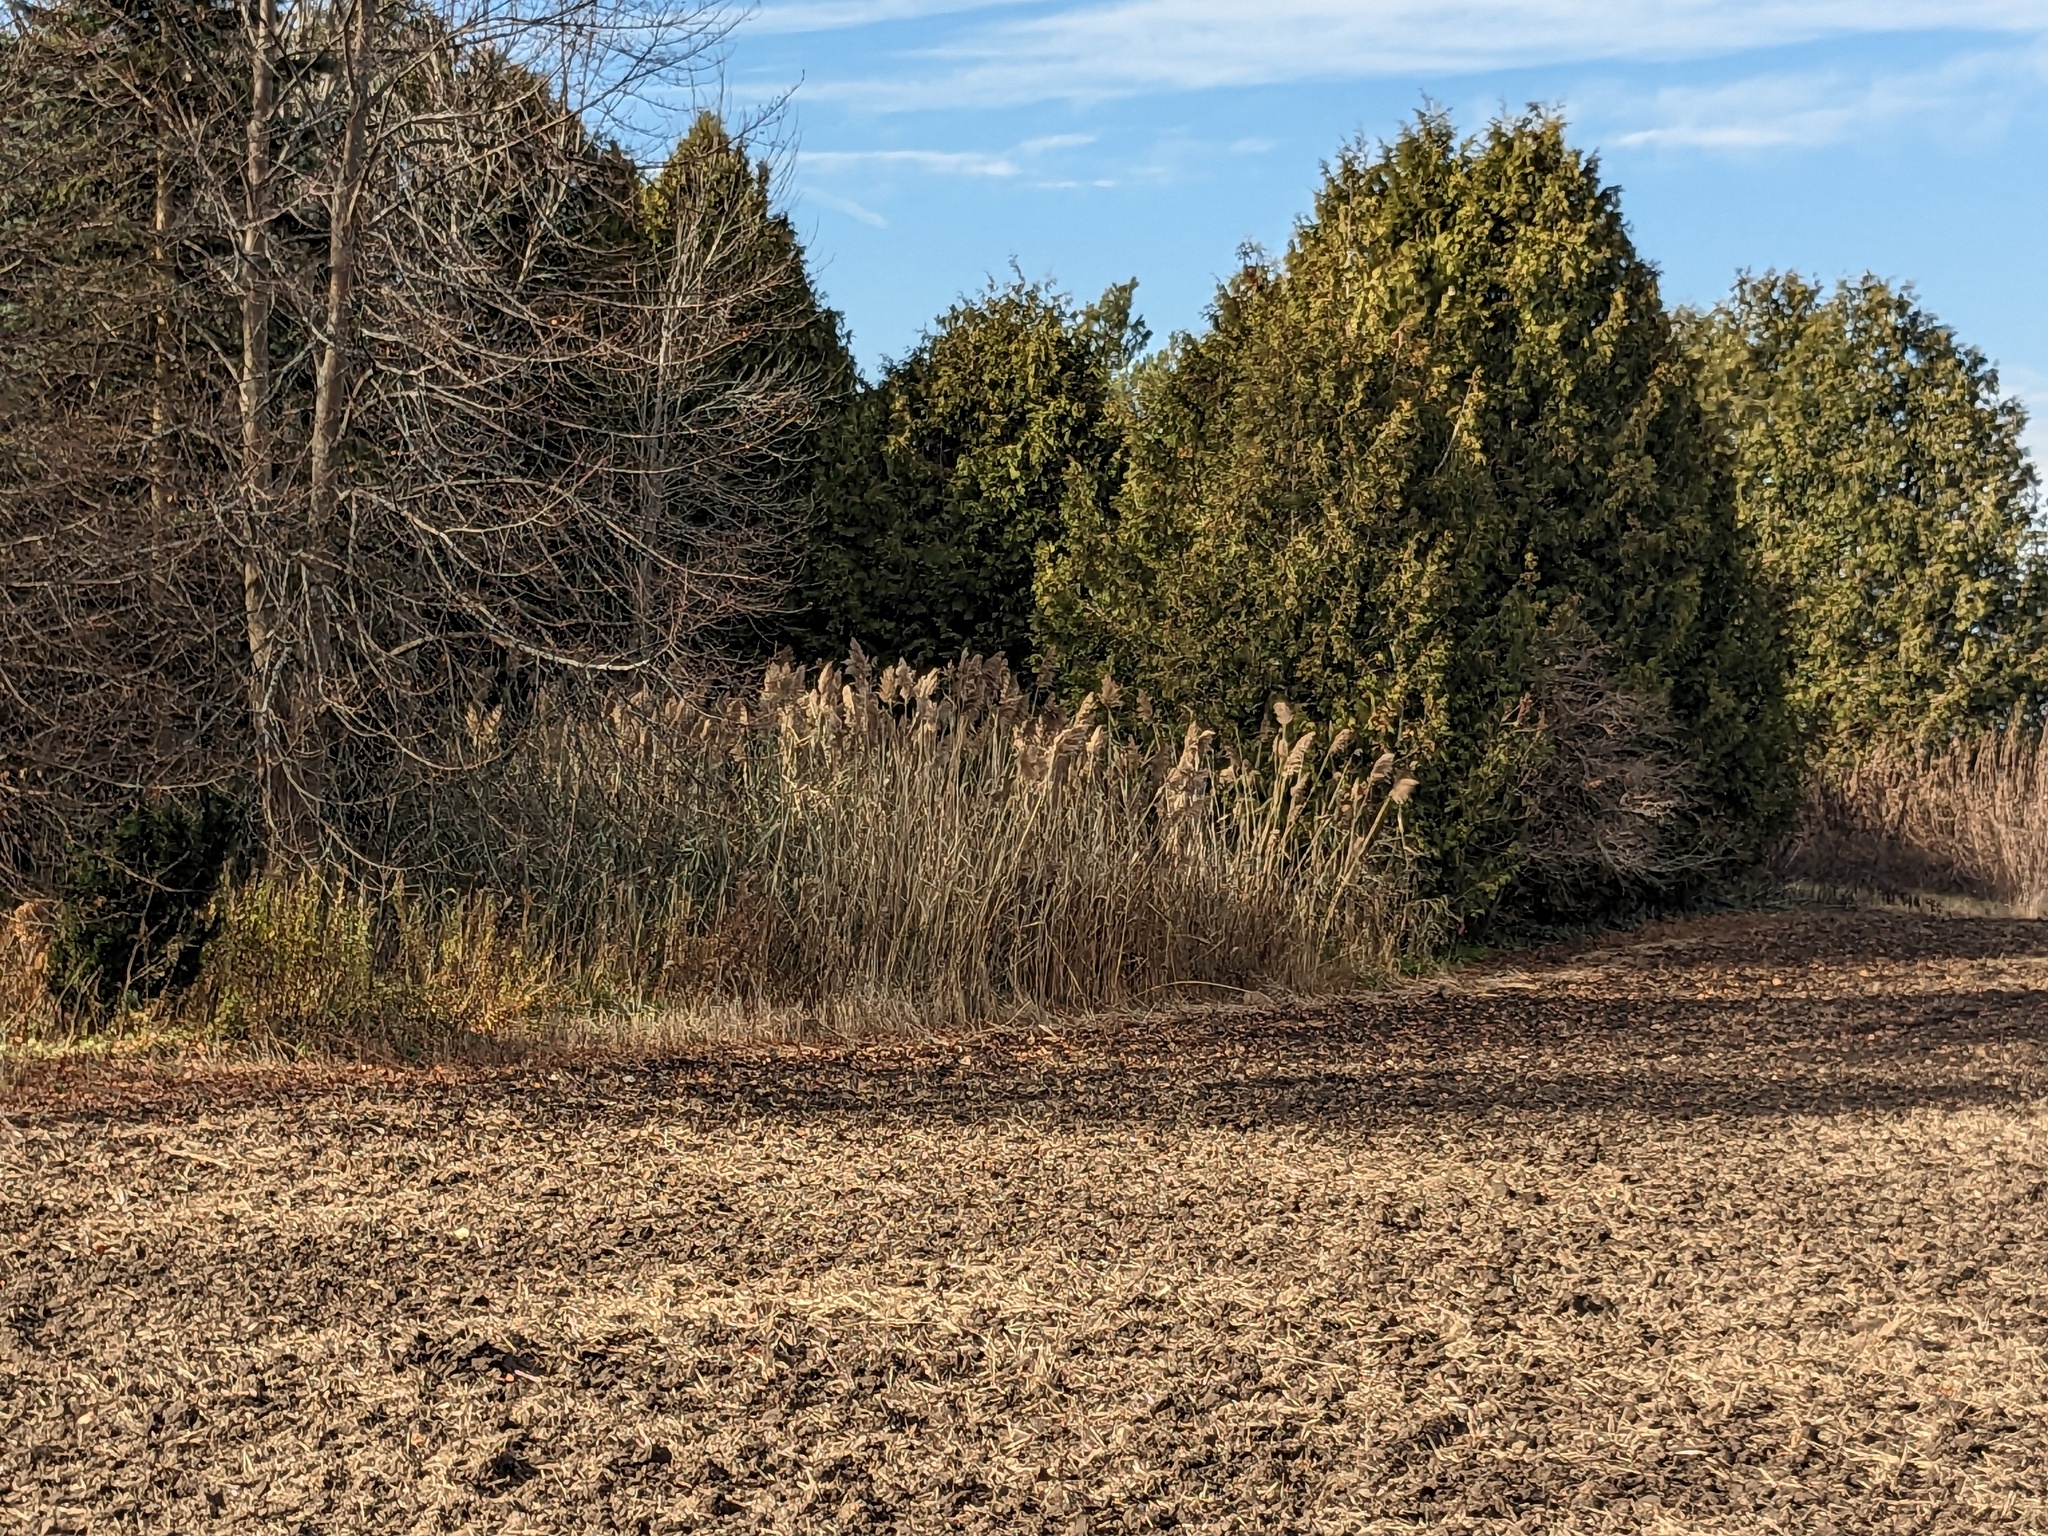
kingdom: Plantae
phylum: Tracheophyta
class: Liliopsida
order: Poales
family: Poaceae
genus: Phragmites
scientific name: Phragmites australis
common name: Common reed
